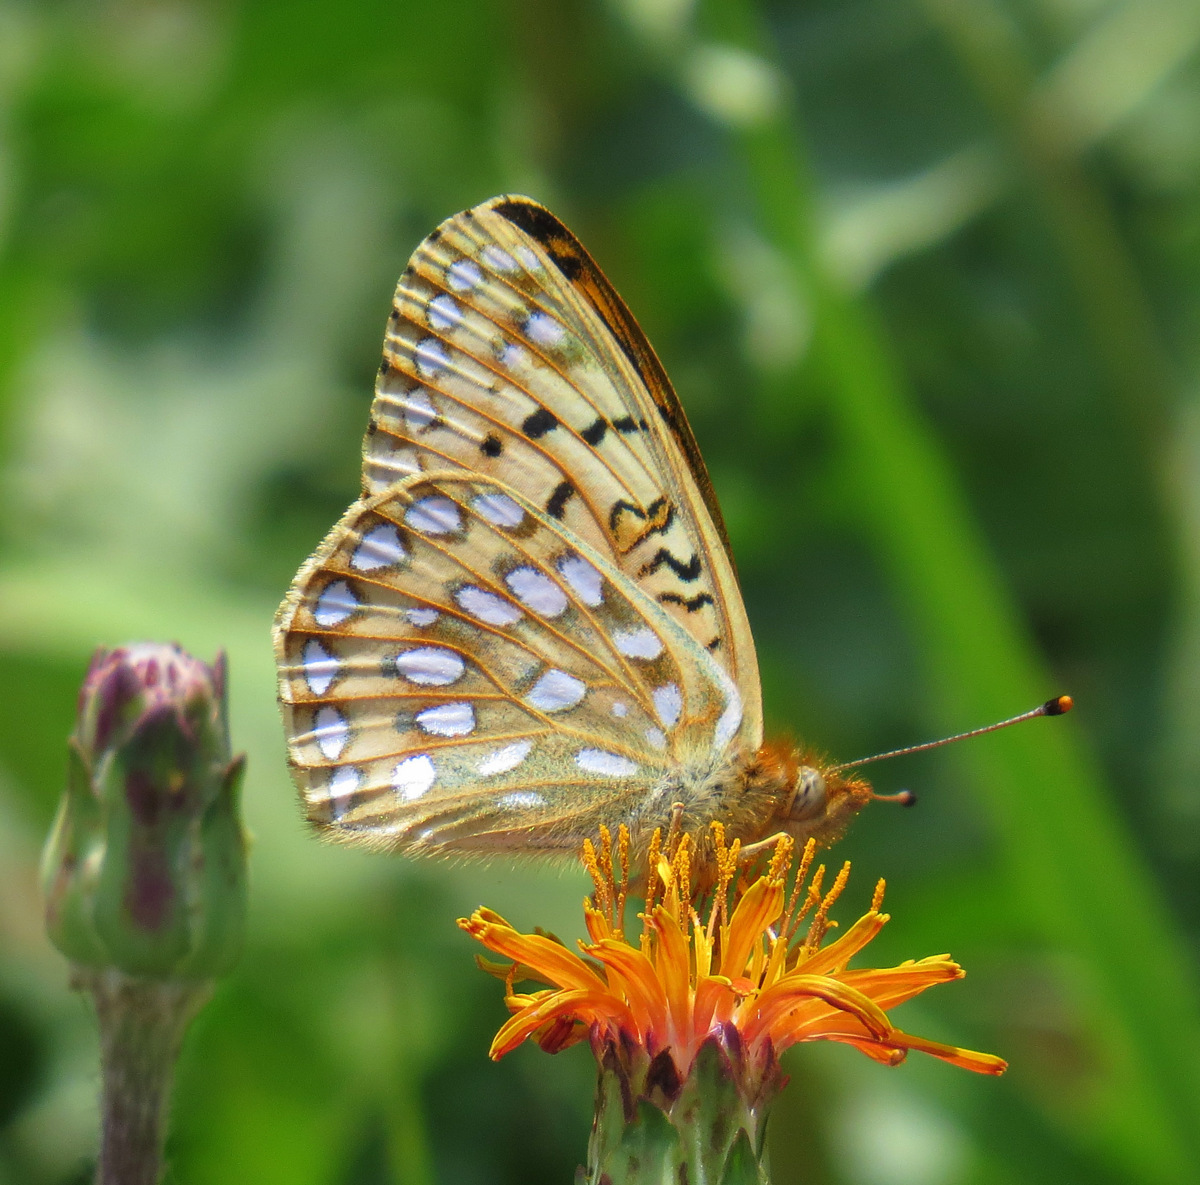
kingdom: Animalia
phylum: Arthropoda
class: Insecta
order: Lepidoptera
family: Nymphalidae
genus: Speyeria
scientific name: Speyeria mormonia
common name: Mormon fritillary
